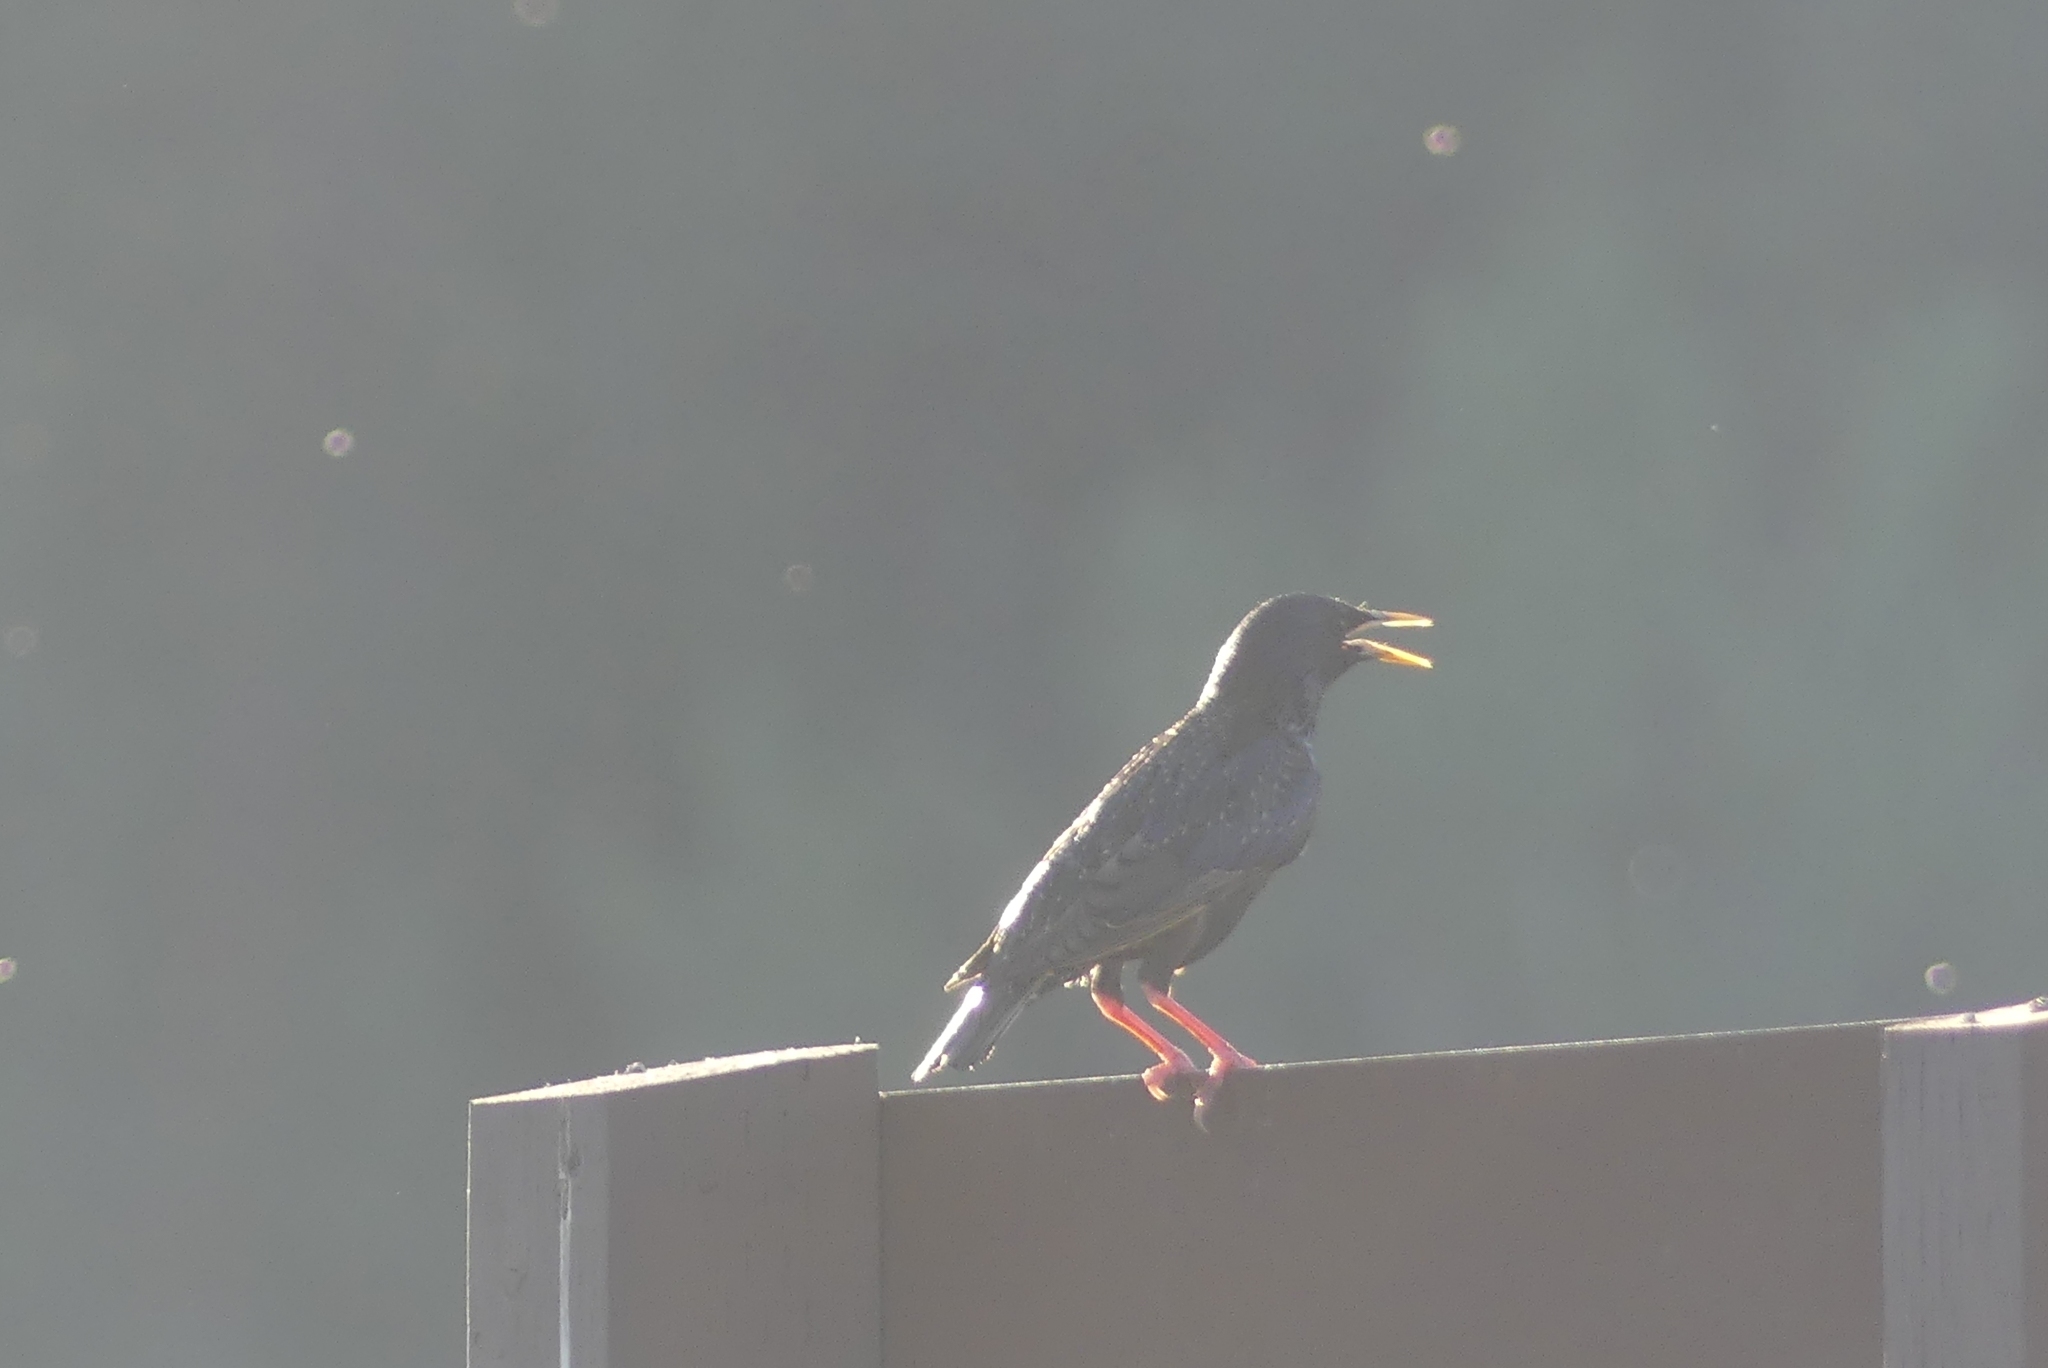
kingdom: Animalia
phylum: Chordata
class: Aves
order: Passeriformes
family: Sturnidae
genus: Sturnus
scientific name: Sturnus vulgaris
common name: Common starling
